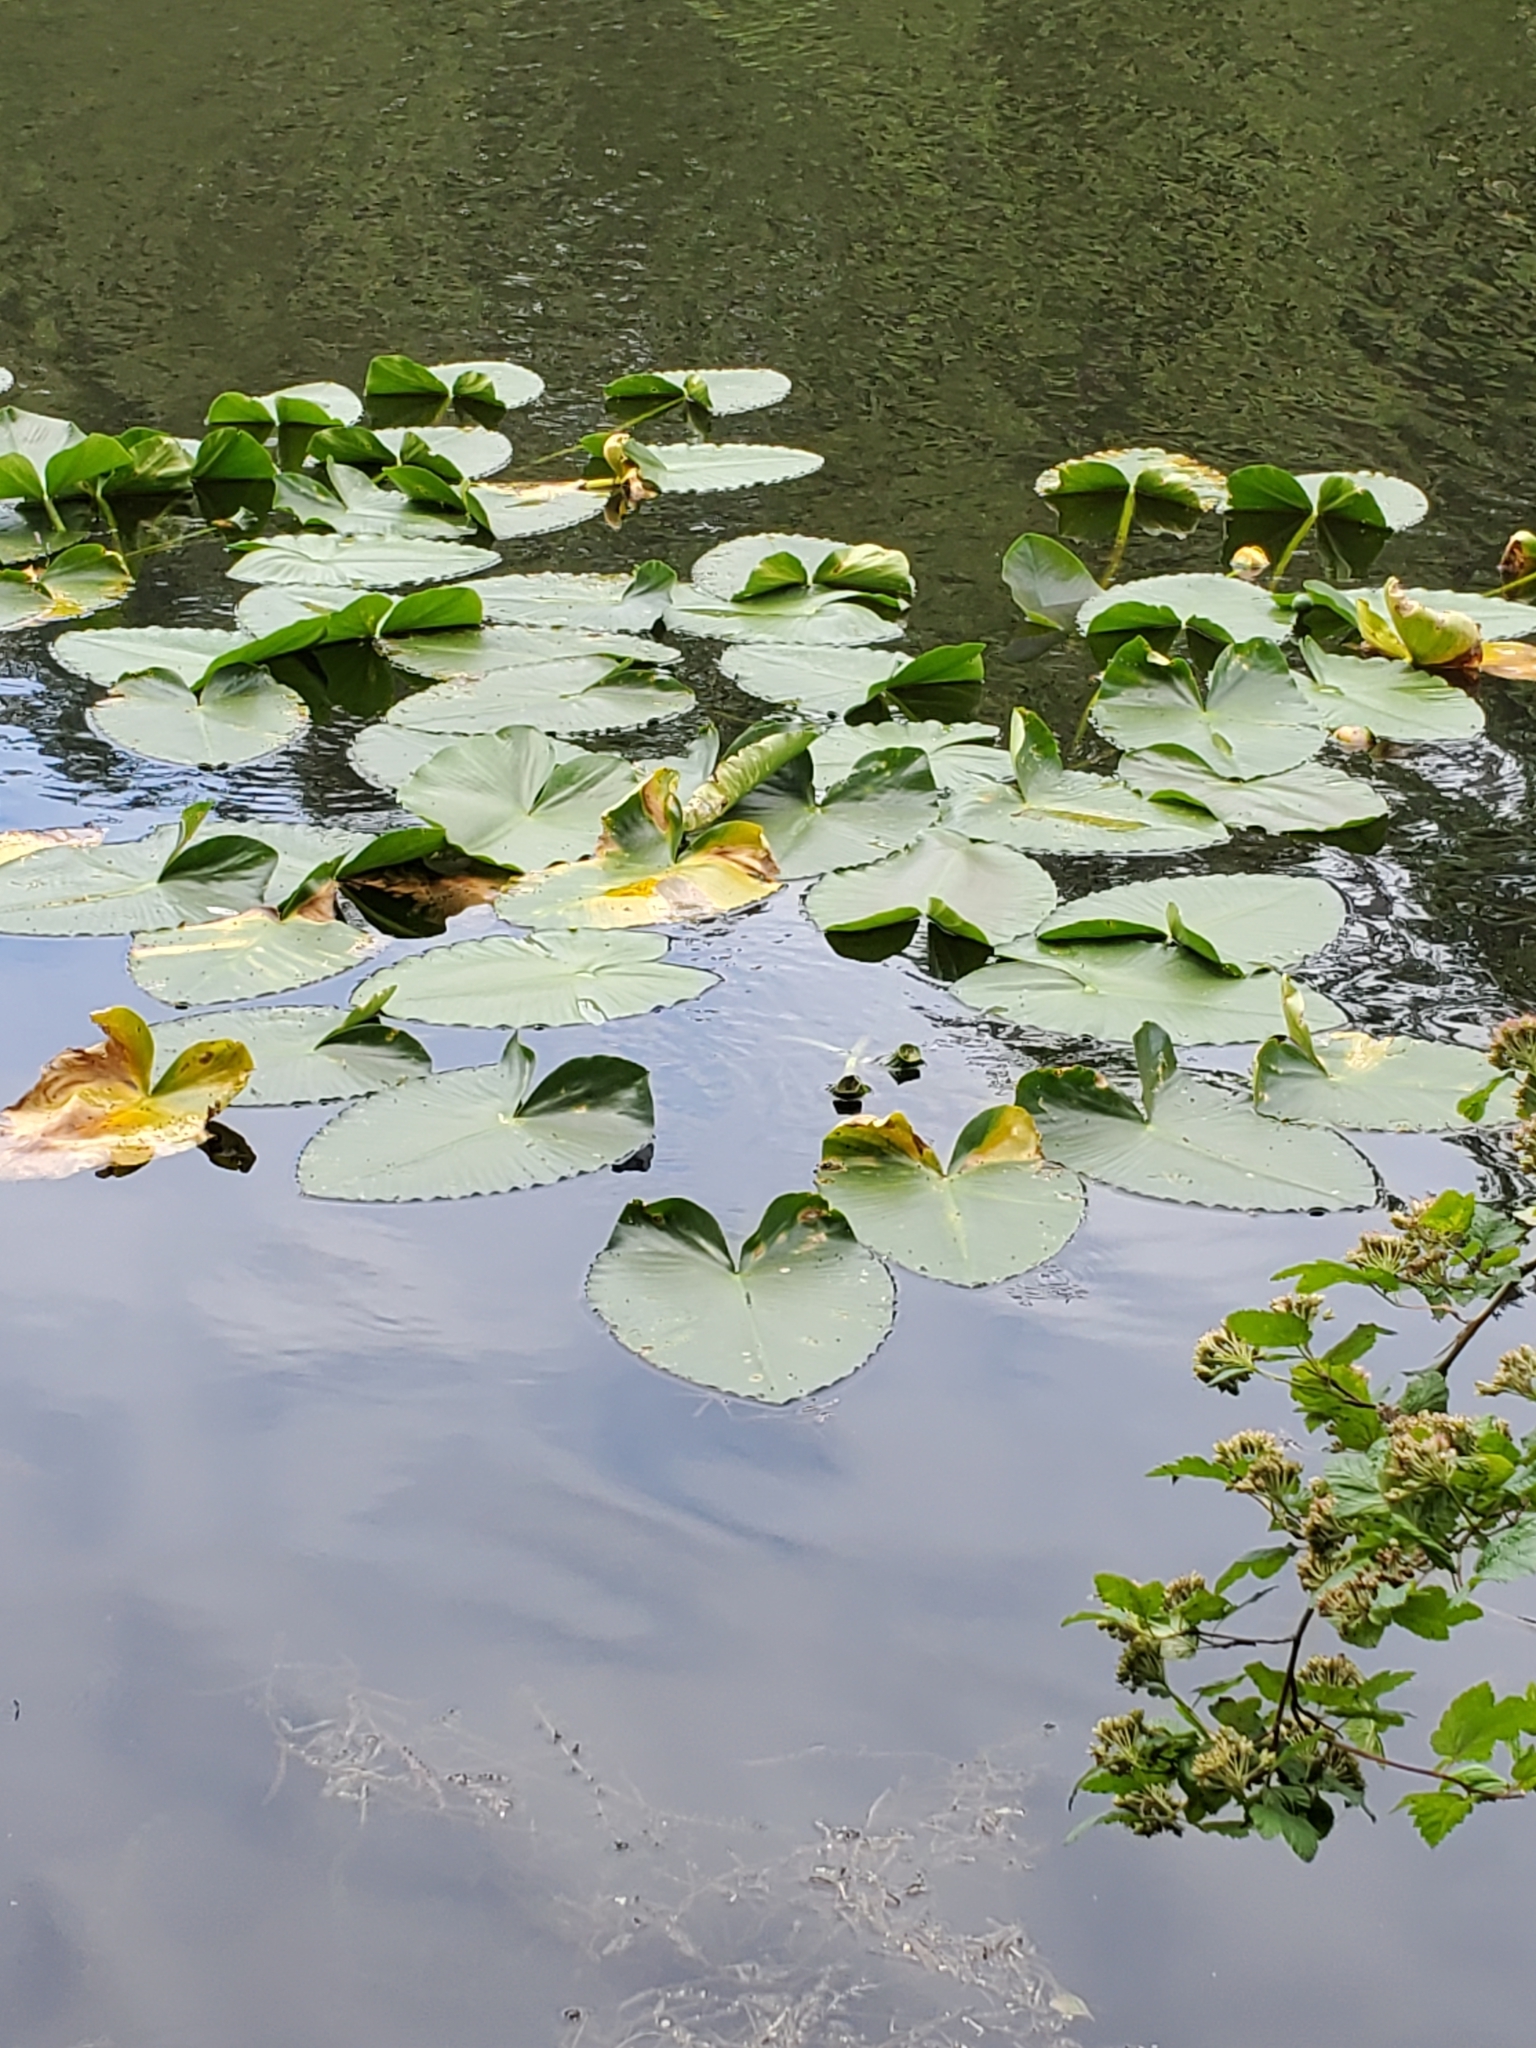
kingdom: Plantae
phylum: Tracheophyta
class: Magnoliopsida
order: Nymphaeales
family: Nymphaeaceae
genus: Nuphar
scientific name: Nuphar polysepala
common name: Rocky mountain cow-lily
